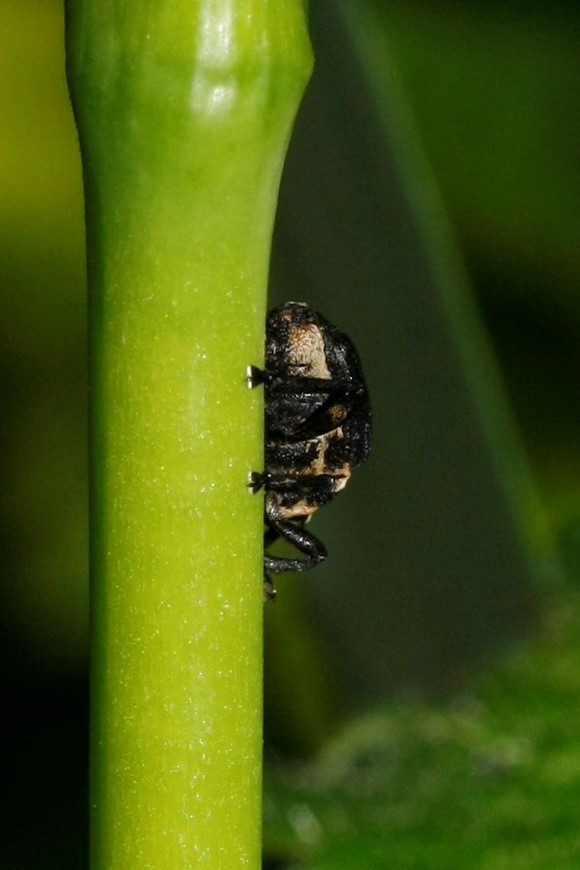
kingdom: Animalia
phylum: Arthropoda
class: Insecta
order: Coleoptera
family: Curculionidae
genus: Mononychus
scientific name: Mononychus punctumalbum
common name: Iris weevil
